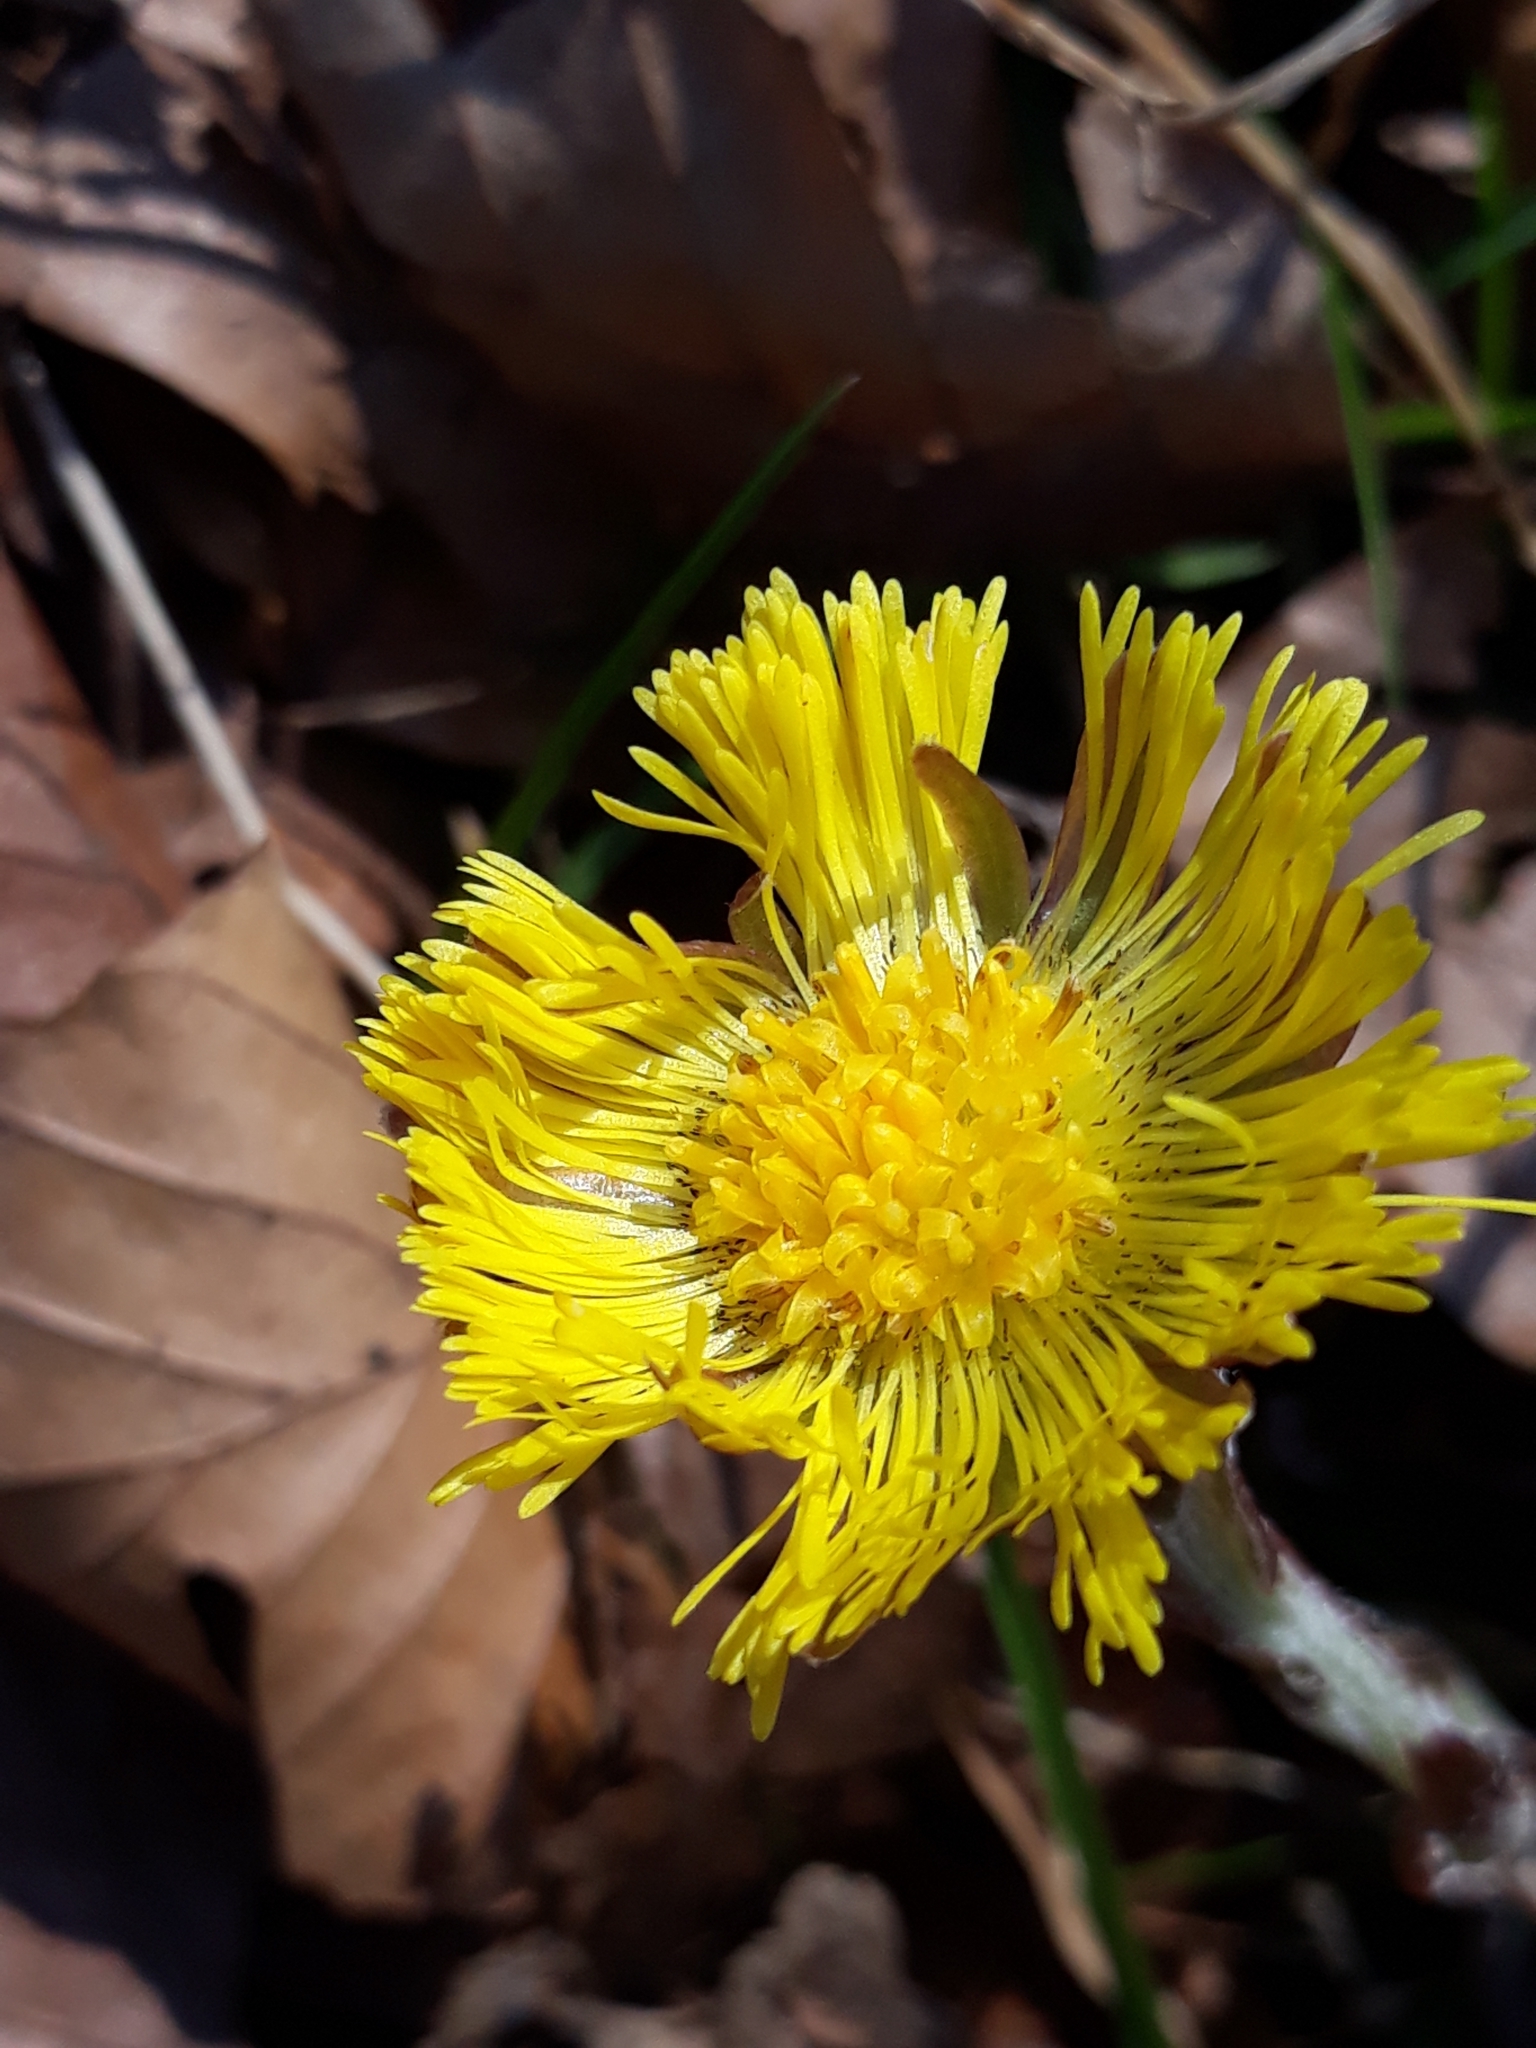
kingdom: Plantae
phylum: Tracheophyta
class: Magnoliopsida
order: Asterales
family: Asteraceae
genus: Tussilago
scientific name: Tussilago farfara
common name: Coltsfoot
